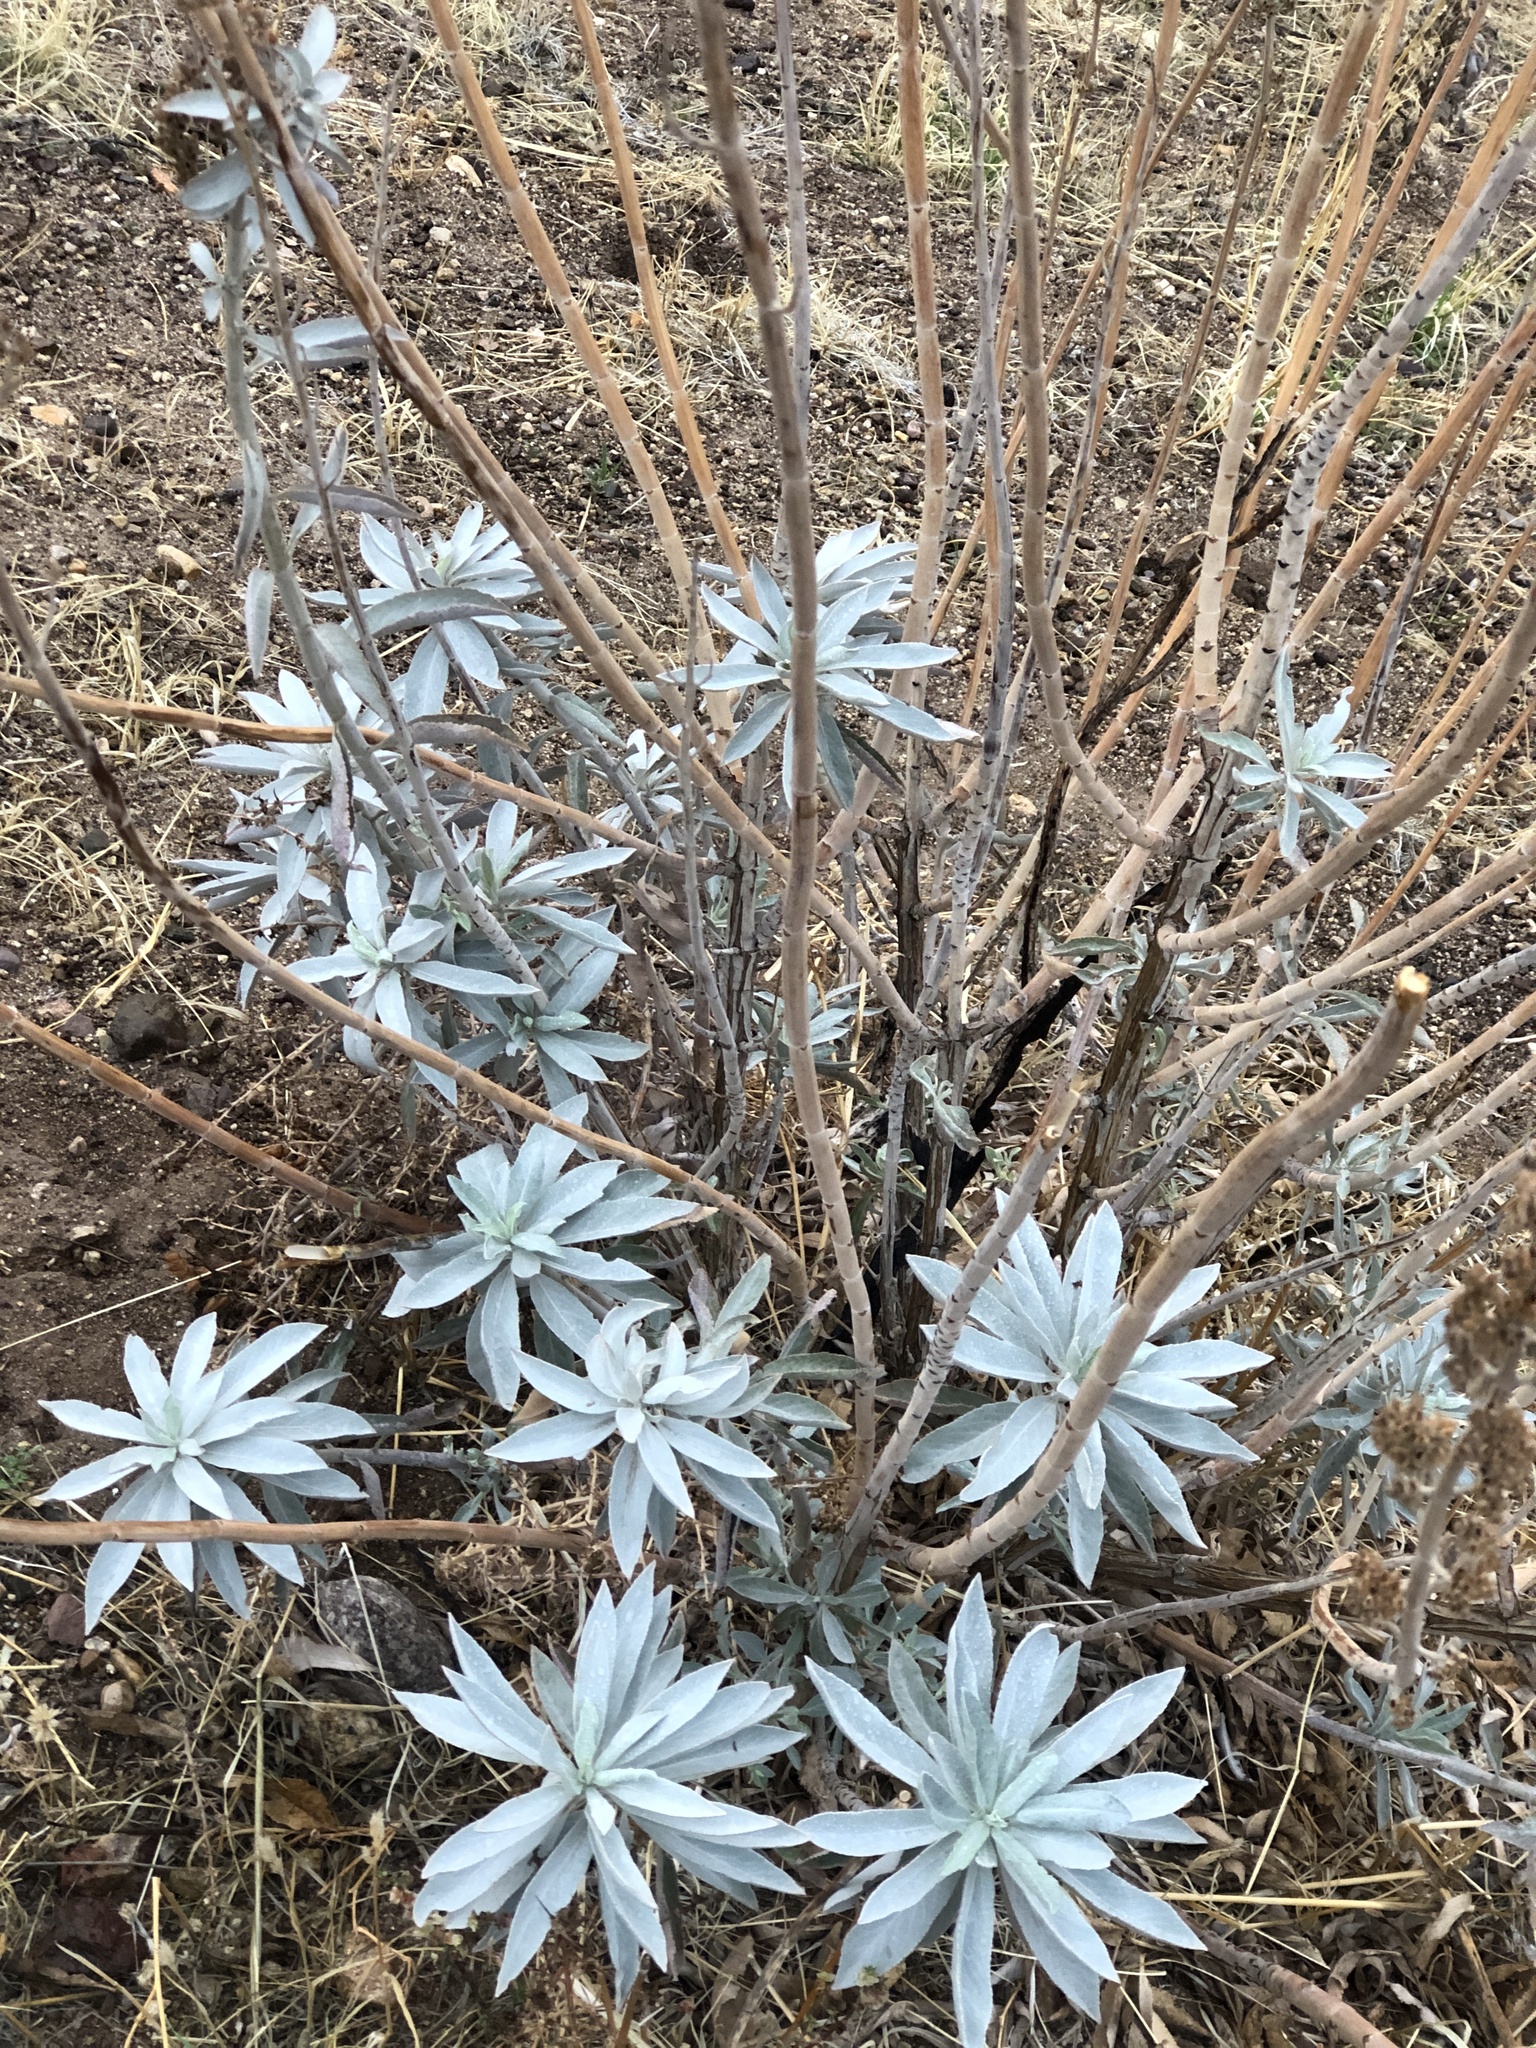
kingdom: Plantae
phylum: Tracheophyta
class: Magnoliopsida
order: Lamiales
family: Lamiaceae
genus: Salvia
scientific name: Salvia apiana
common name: White sage
